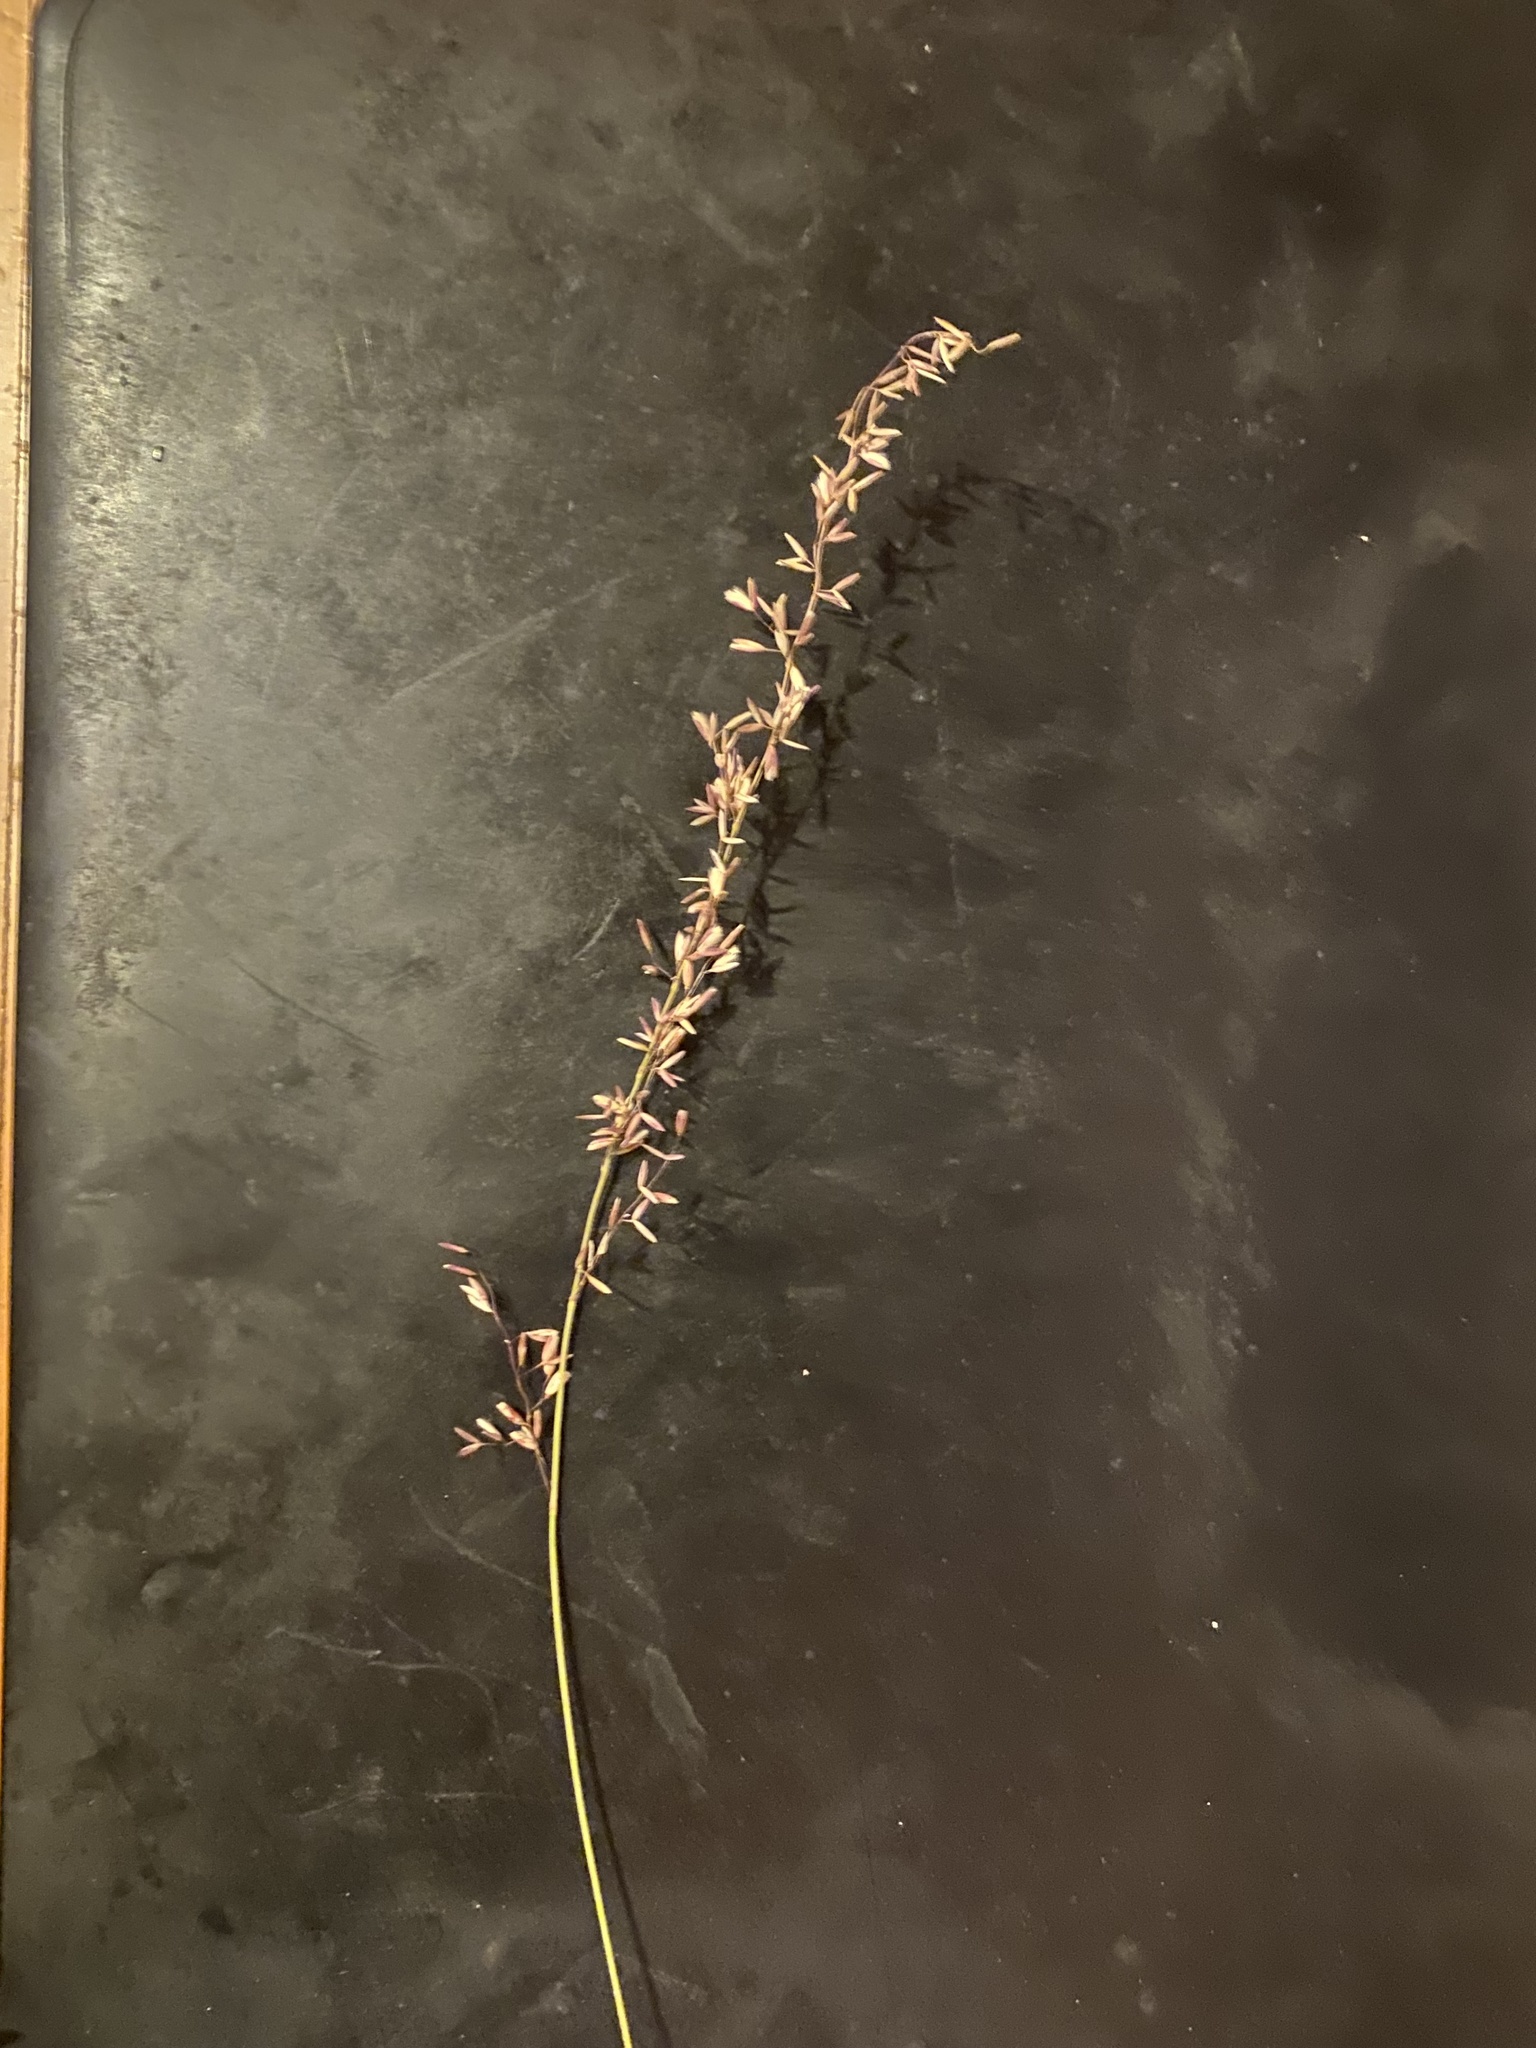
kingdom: Plantae
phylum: Tracheophyta
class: Liliopsida
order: Poales
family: Poaceae
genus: Ehrharta
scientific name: Ehrharta calycina
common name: Perennial veldtgrass
